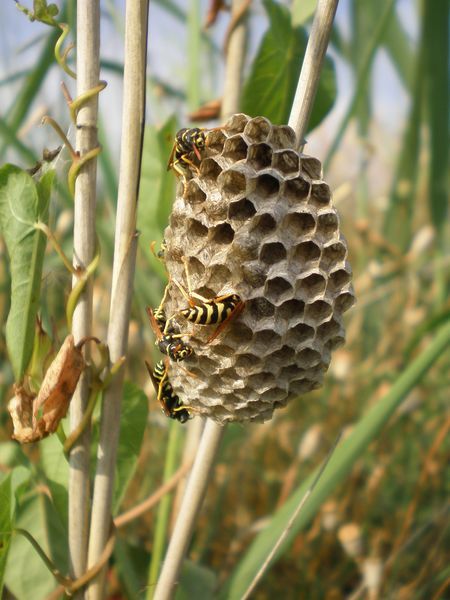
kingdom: Animalia
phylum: Arthropoda
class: Insecta
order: Hymenoptera
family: Eumenidae
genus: Polistes
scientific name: Polistes bischoffi
